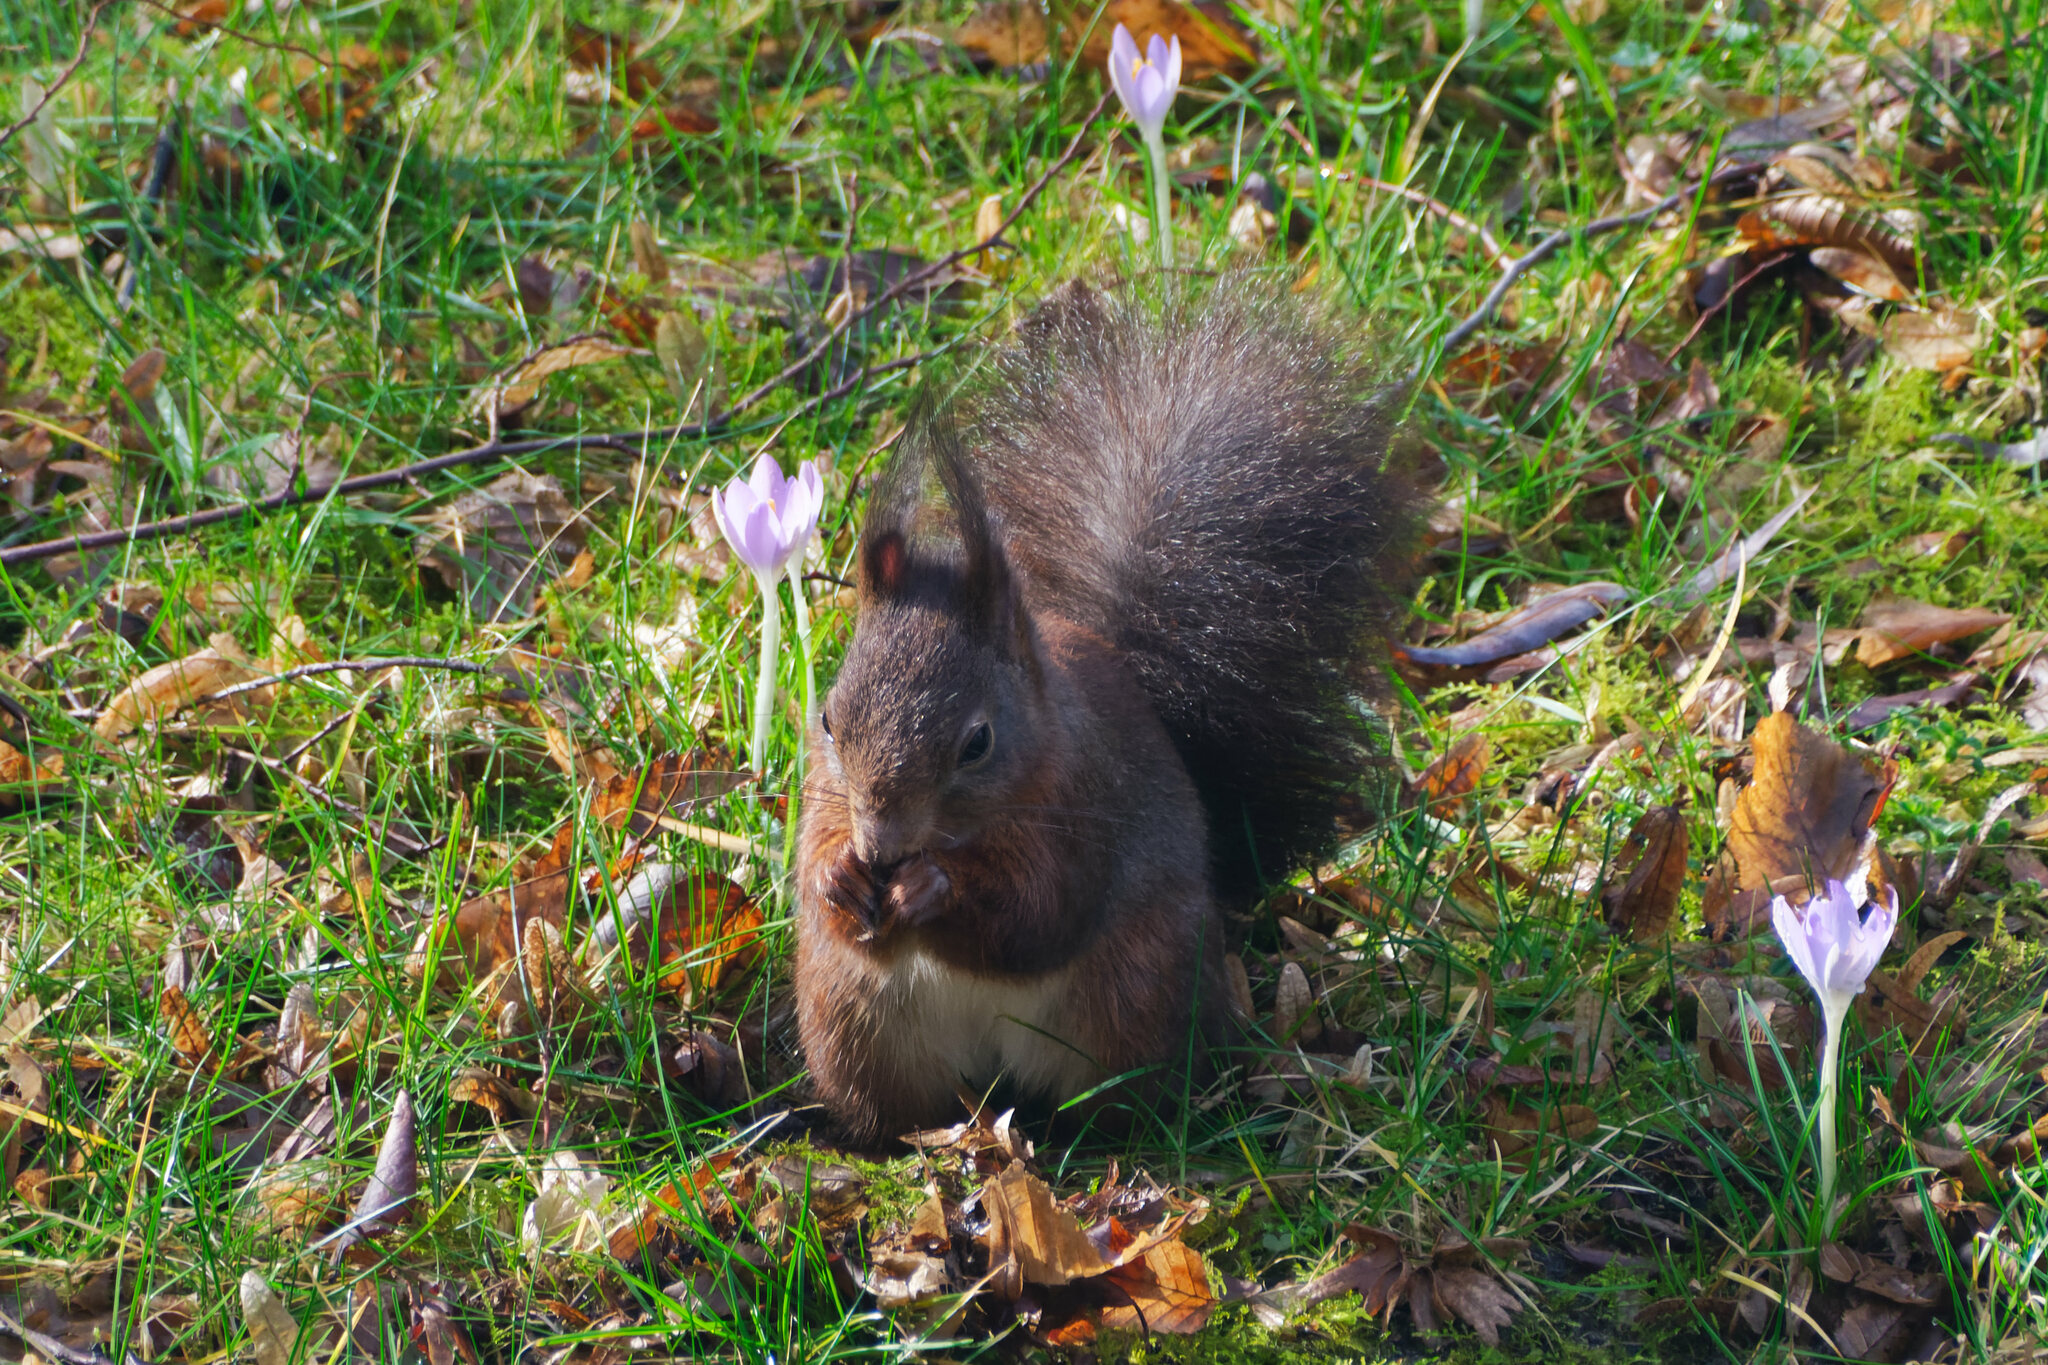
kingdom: Animalia
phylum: Chordata
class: Mammalia
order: Rodentia
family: Sciuridae
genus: Sciurus
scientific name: Sciurus vulgaris
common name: Eurasian red squirrel
